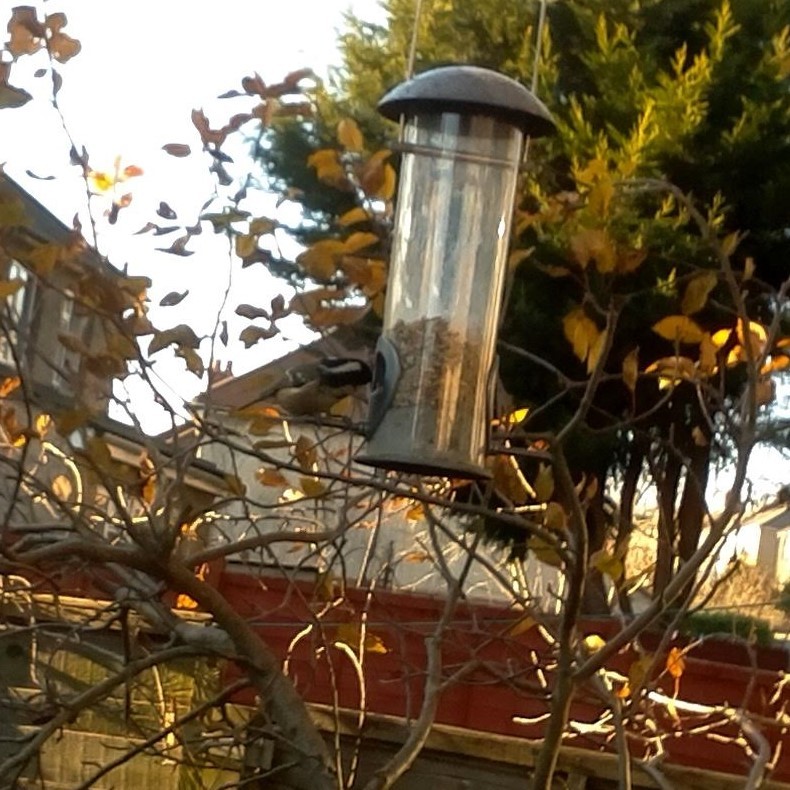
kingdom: Animalia
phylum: Chordata
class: Aves
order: Passeriformes
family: Paridae
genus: Periparus
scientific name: Periparus ater
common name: Coal tit
